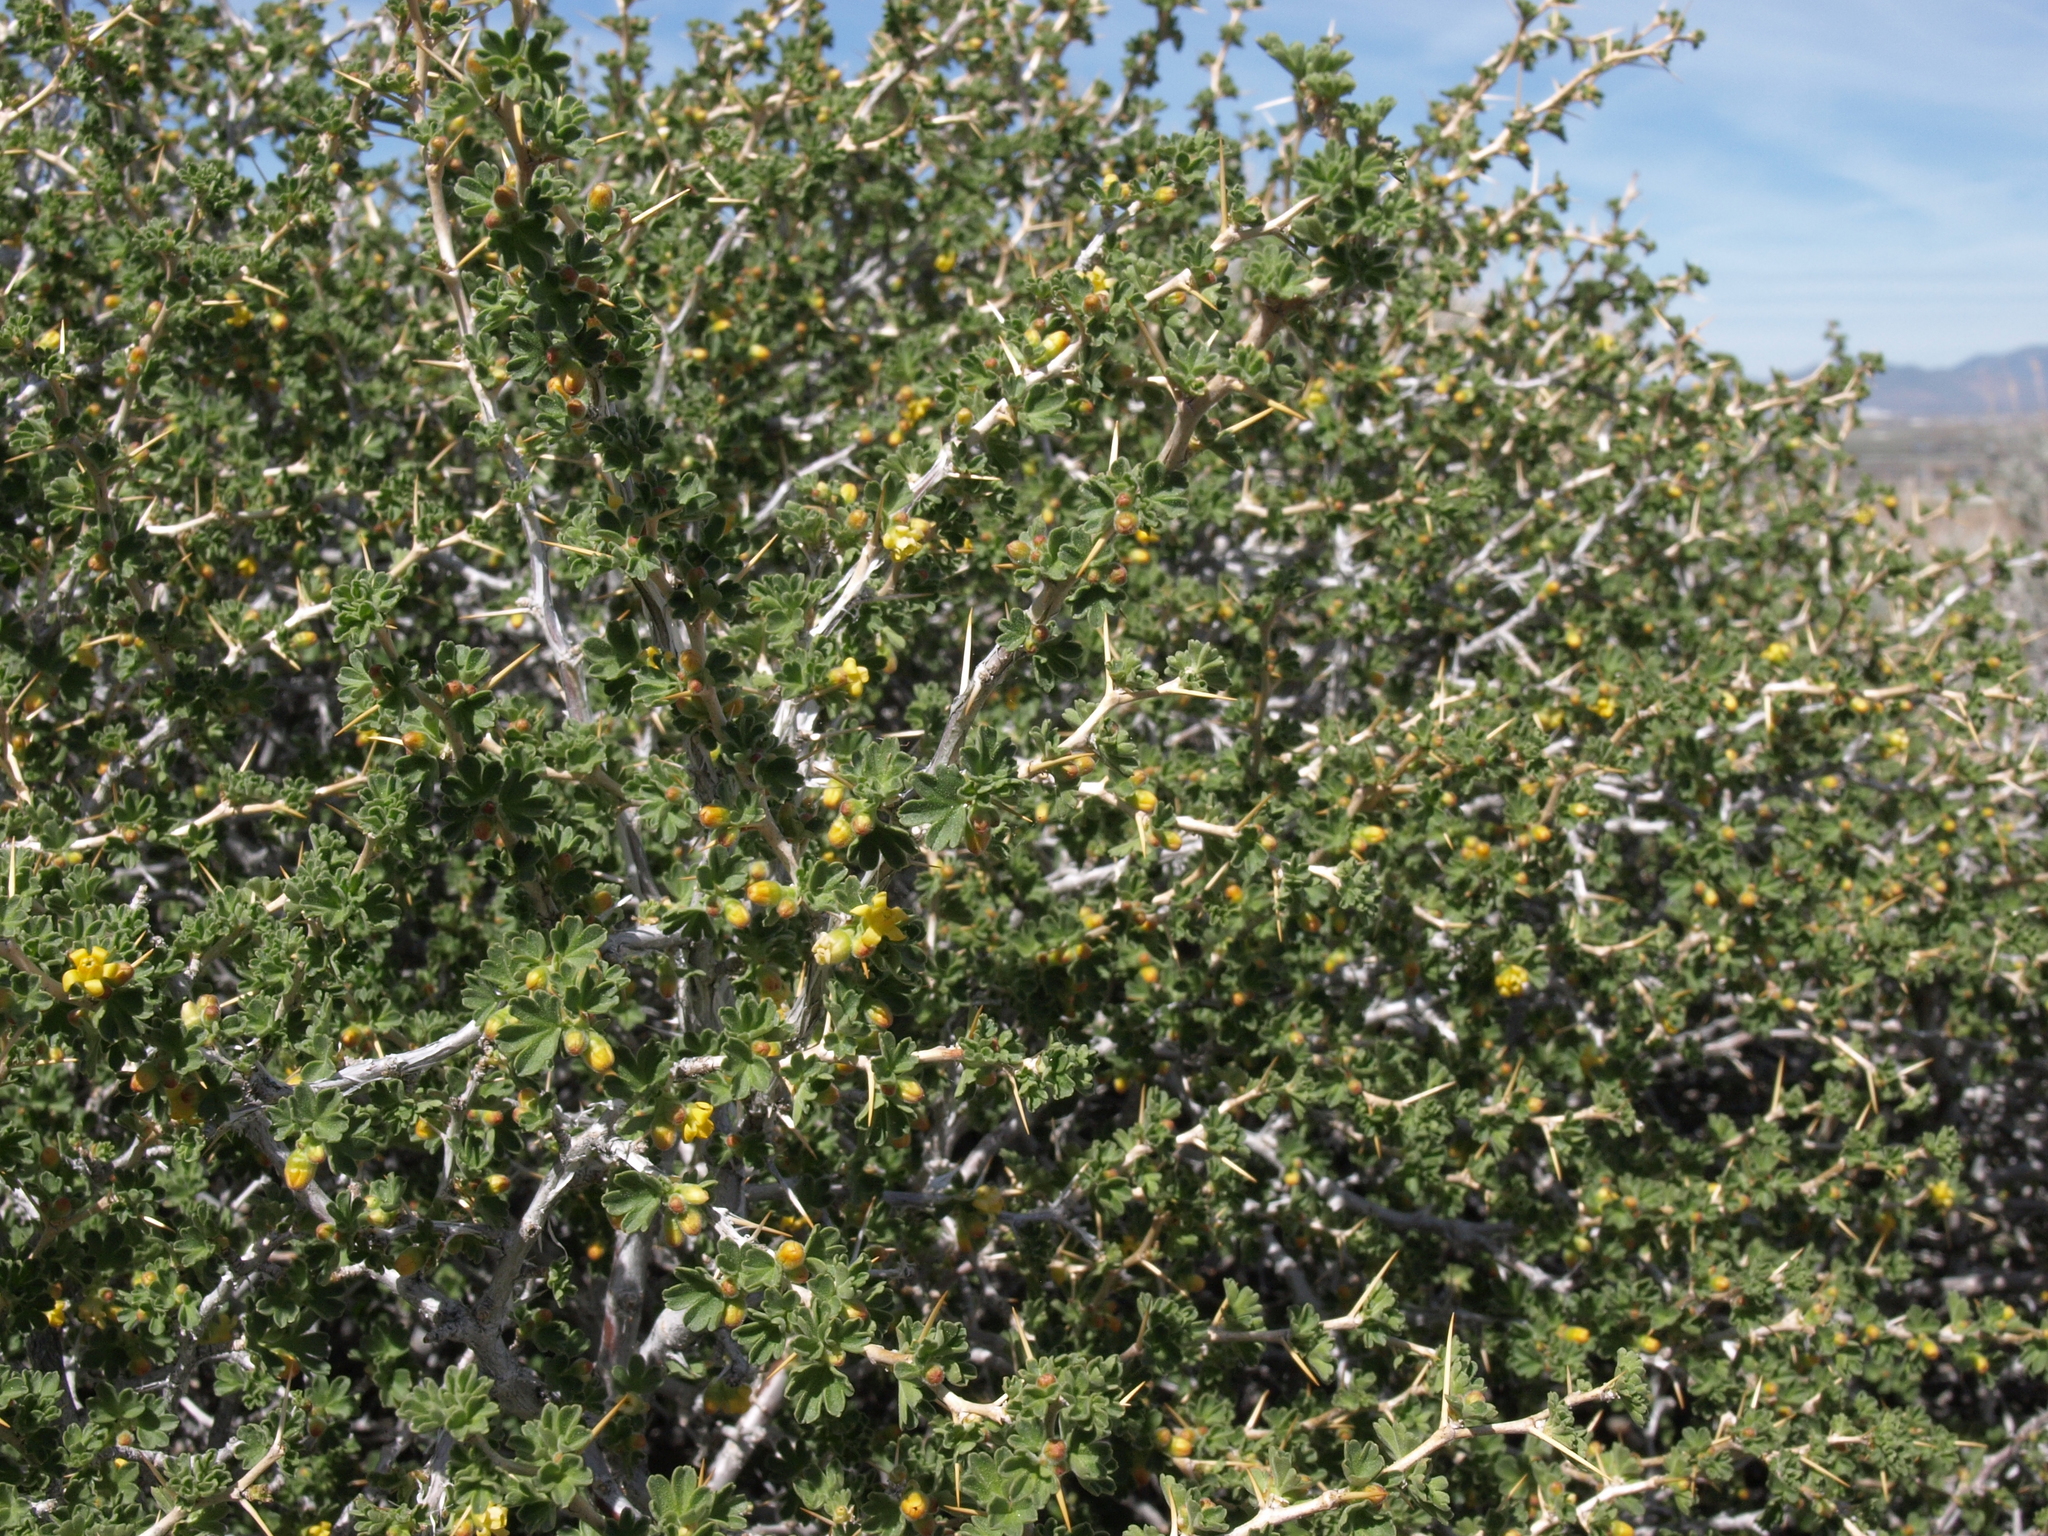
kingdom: Plantae
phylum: Tracheophyta
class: Magnoliopsida
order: Saxifragales
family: Grossulariaceae
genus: Ribes
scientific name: Ribes velutinum
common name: Desert gooseberry
